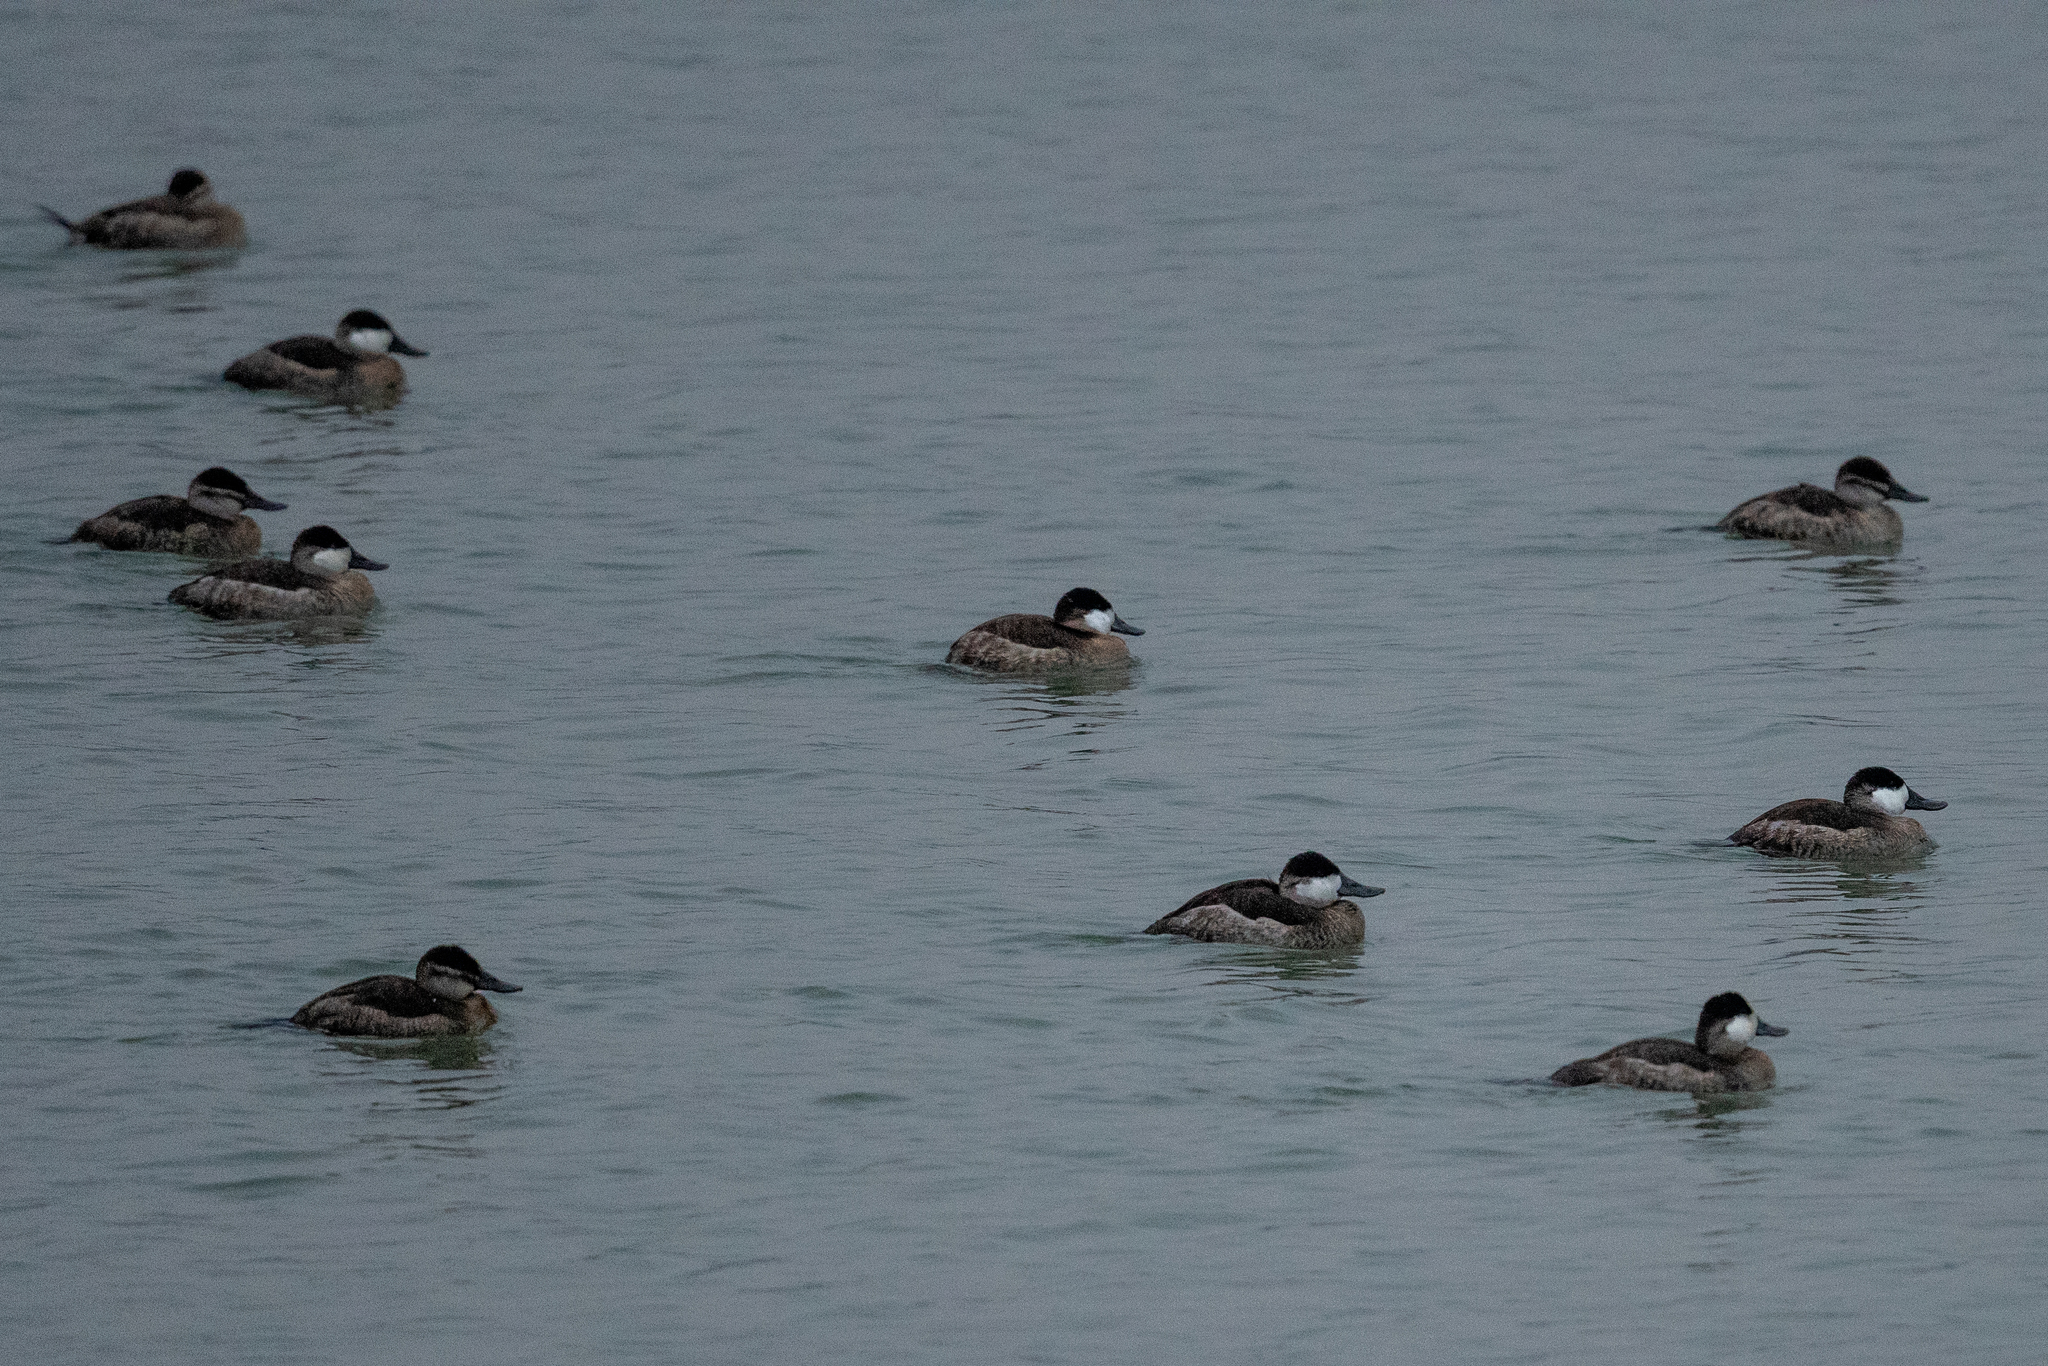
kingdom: Animalia
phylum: Chordata
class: Aves
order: Anseriformes
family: Anatidae
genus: Oxyura
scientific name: Oxyura jamaicensis
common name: Ruddy duck
